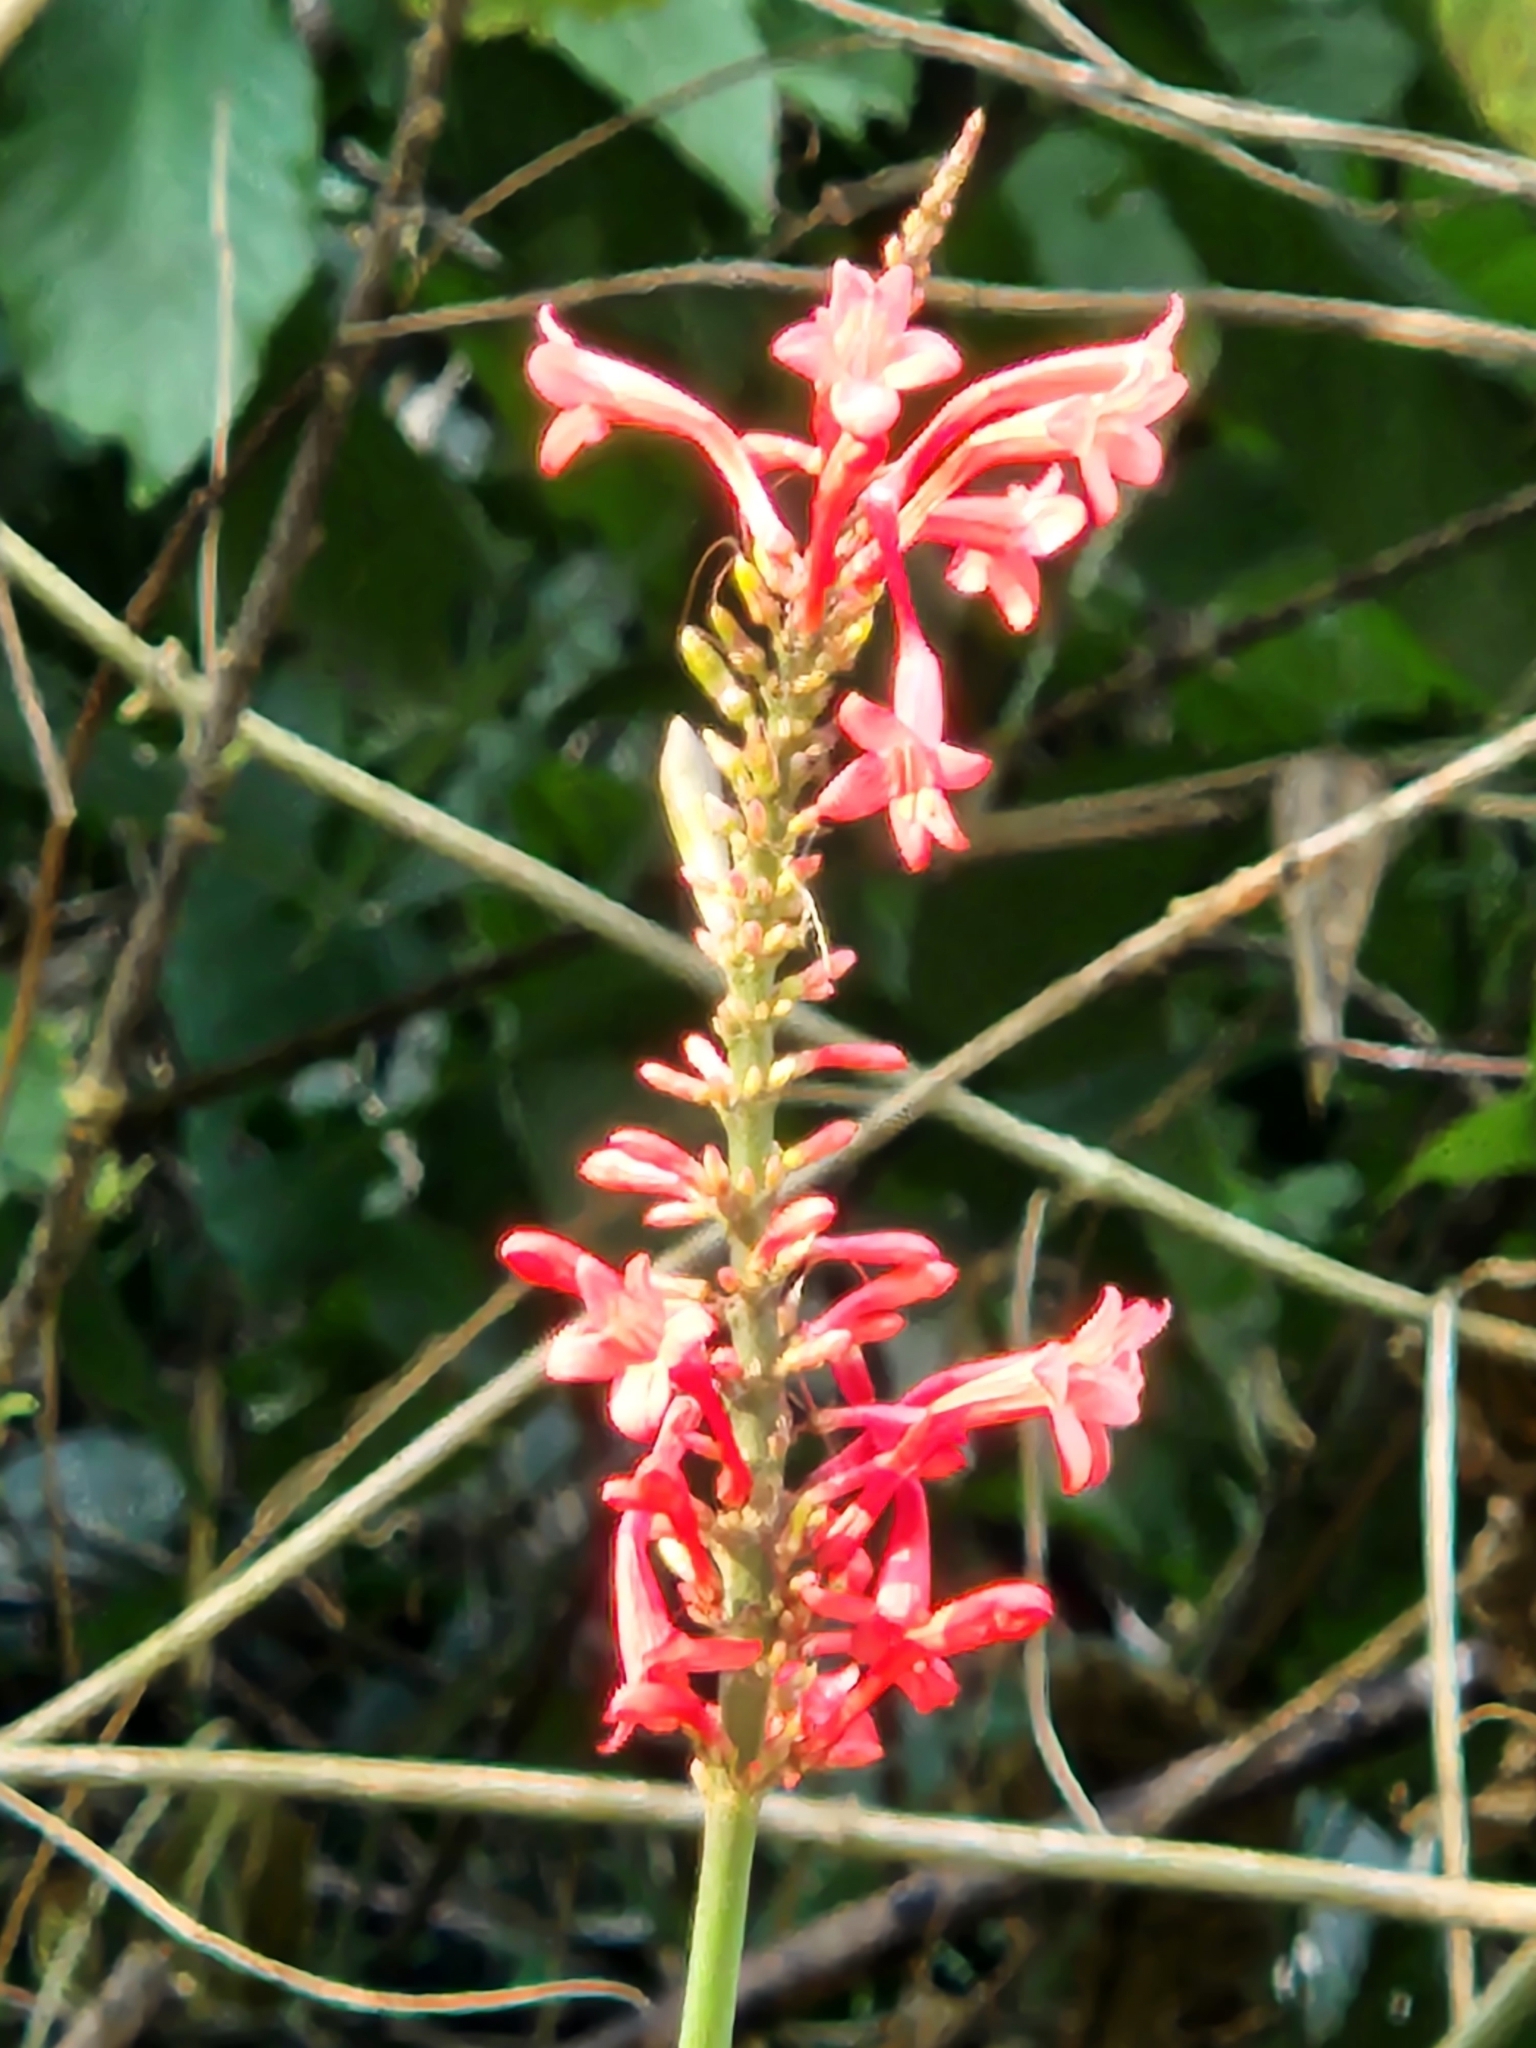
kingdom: Plantae
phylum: Tracheophyta
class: Magnoliopsida
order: Lamiales
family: Acanthaceae
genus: Odontonema
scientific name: Odontonema tubaeforme
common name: Firespike
